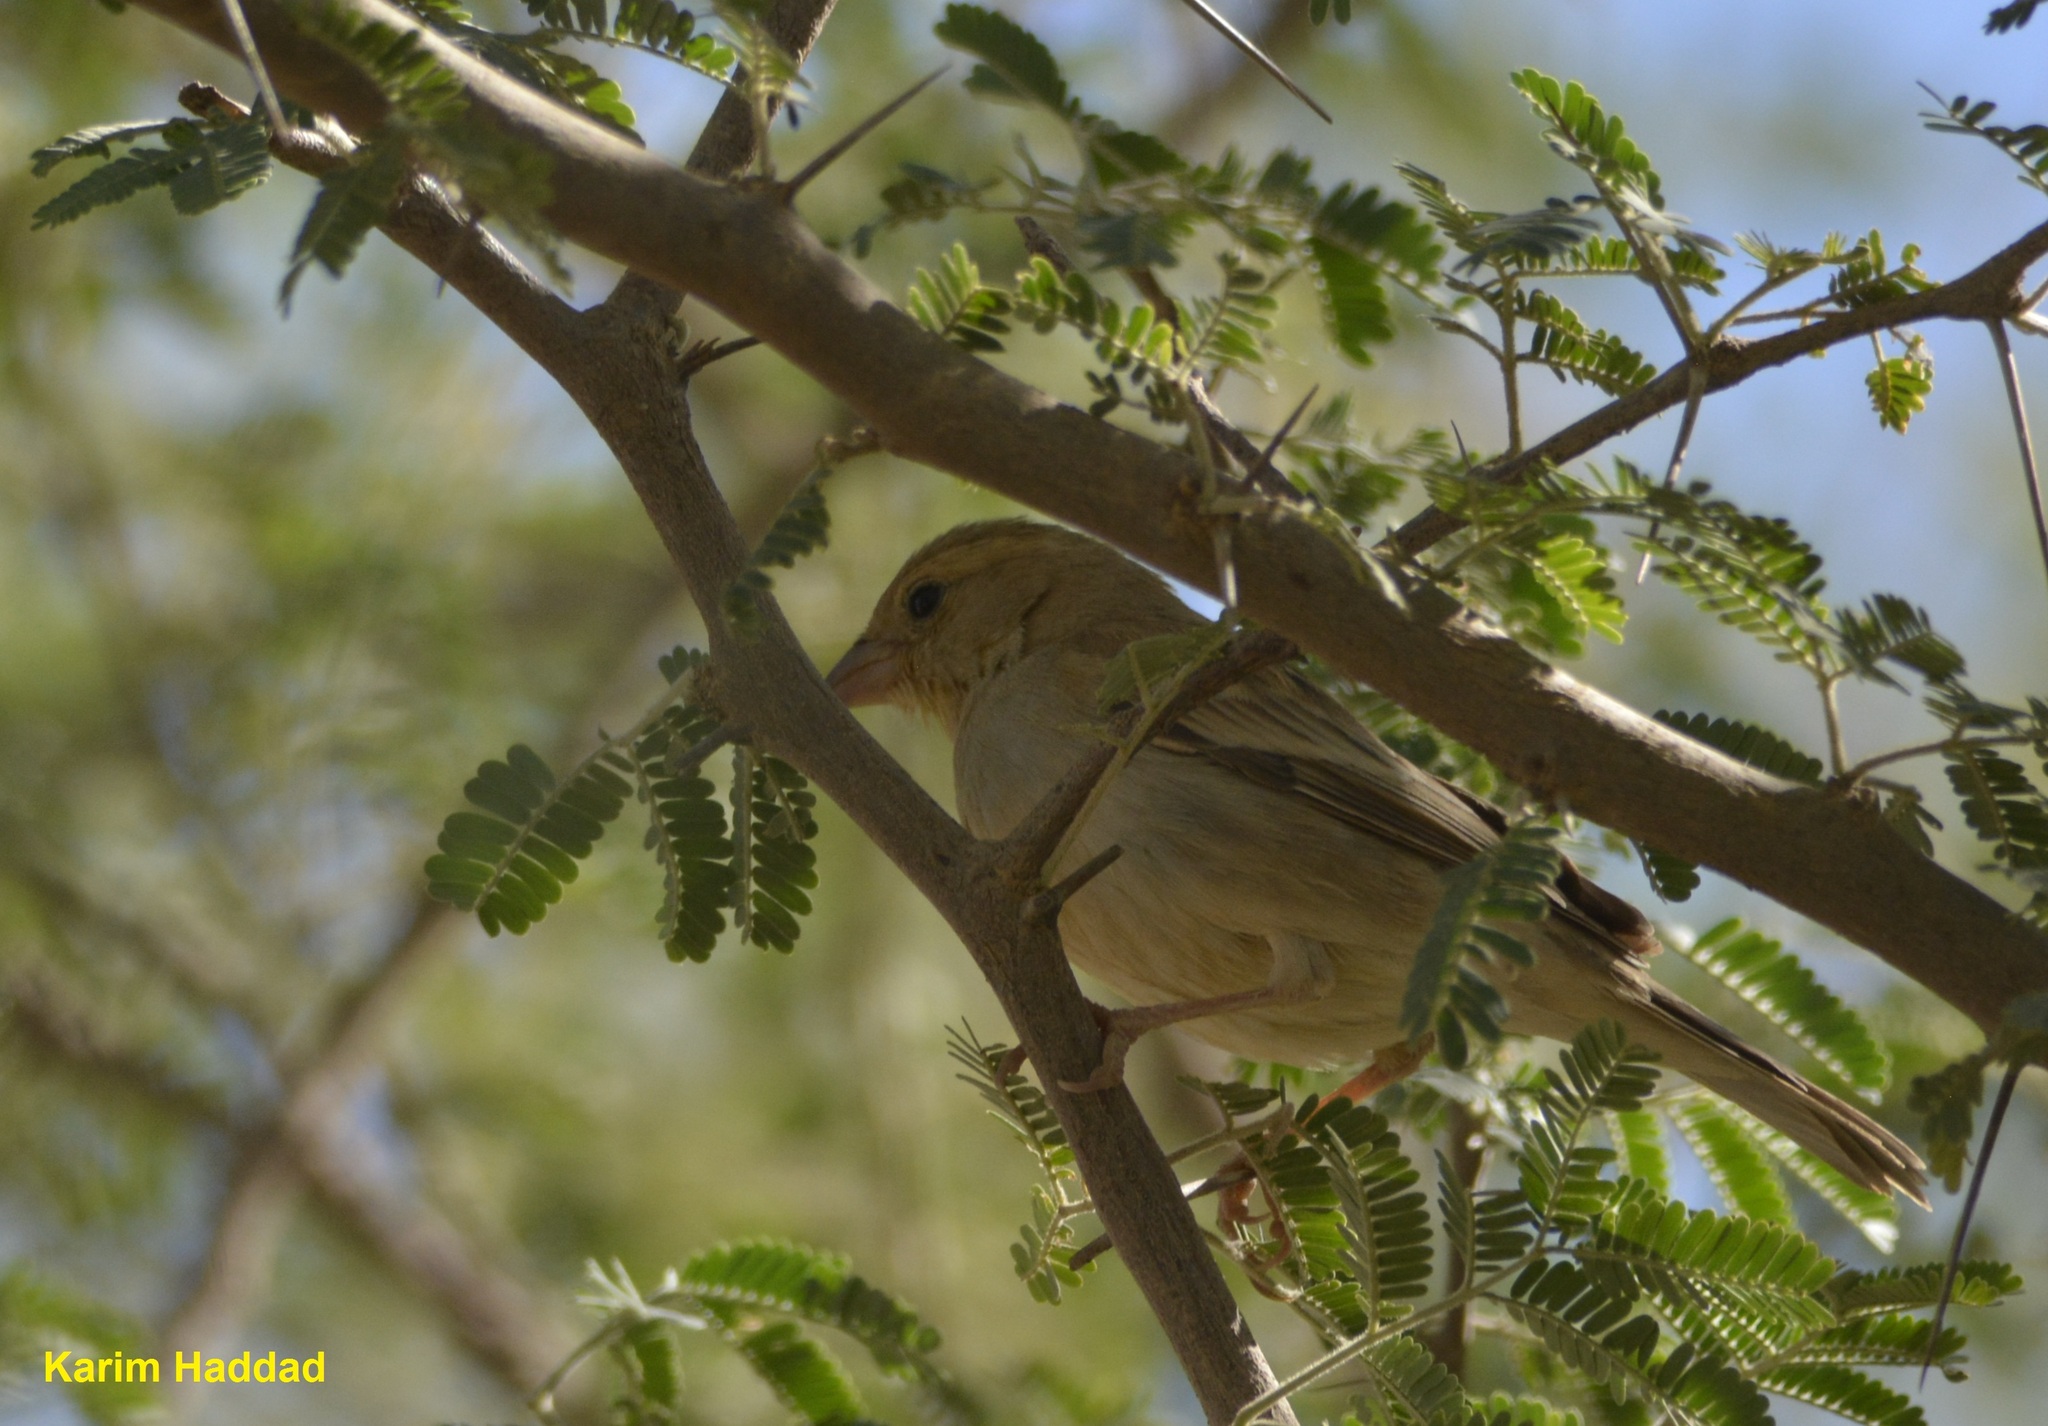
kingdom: Animalia
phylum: Chordata
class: Aves
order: Passeriformes
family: Passeridae
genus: Passer
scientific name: Passer luteus
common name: Sudan golden sparrow
